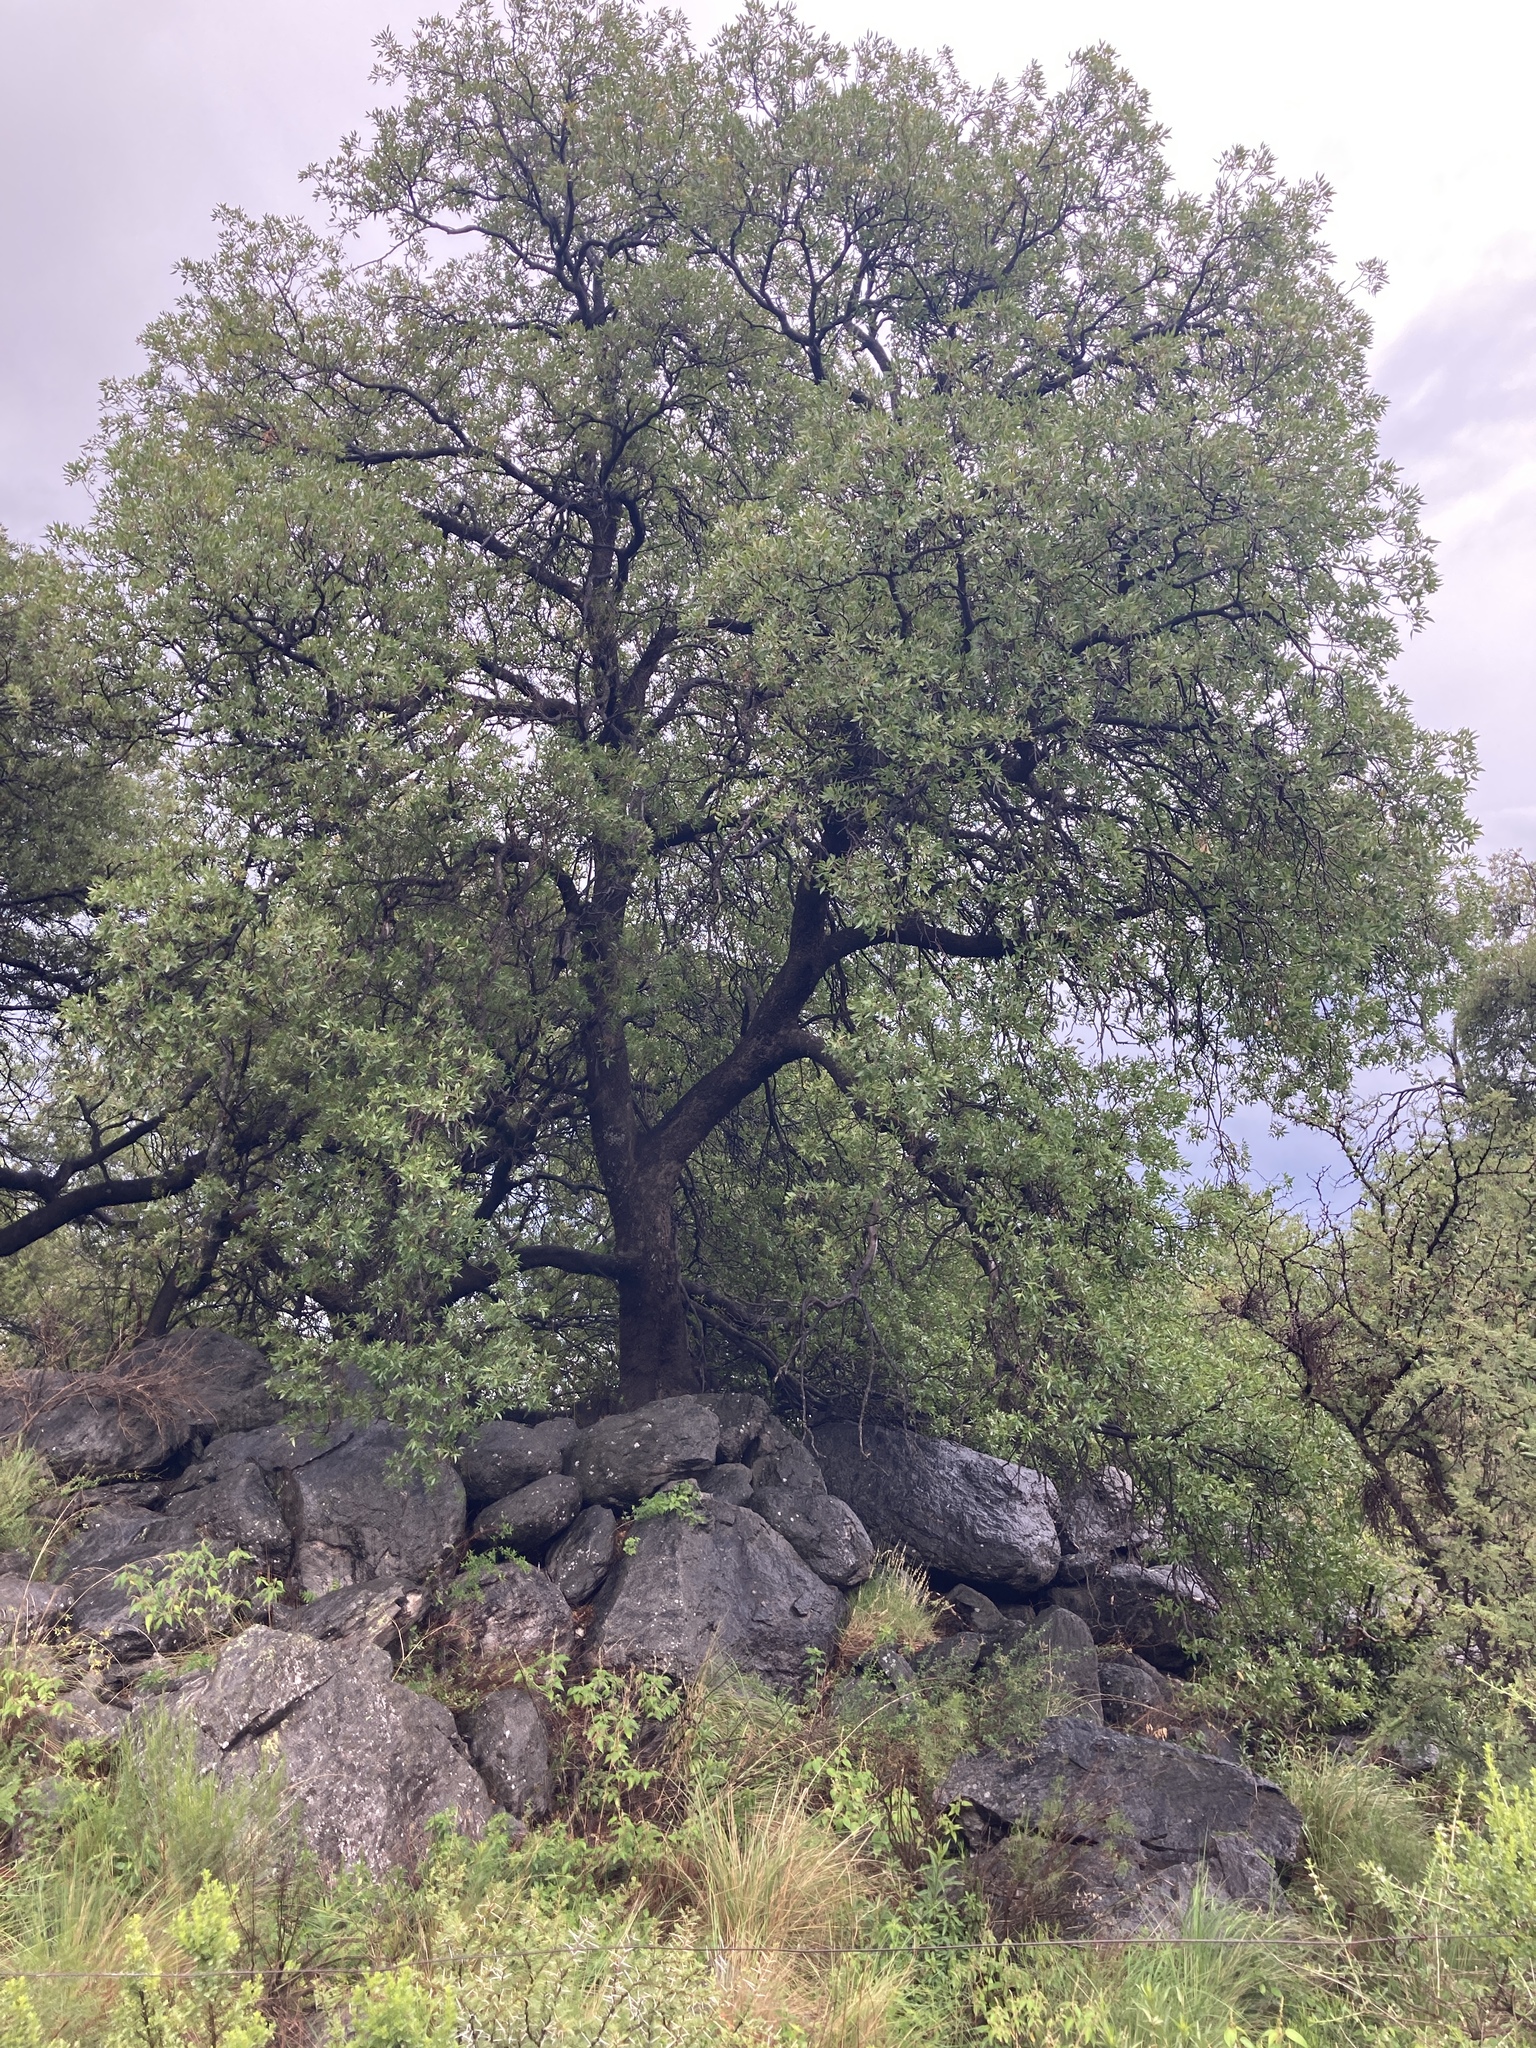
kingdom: Plantae
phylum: Tracheophyta
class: Magnoliopsida
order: Sapindales
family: Anacardiaceae
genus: Lithraea
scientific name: Lithraea molleoides
